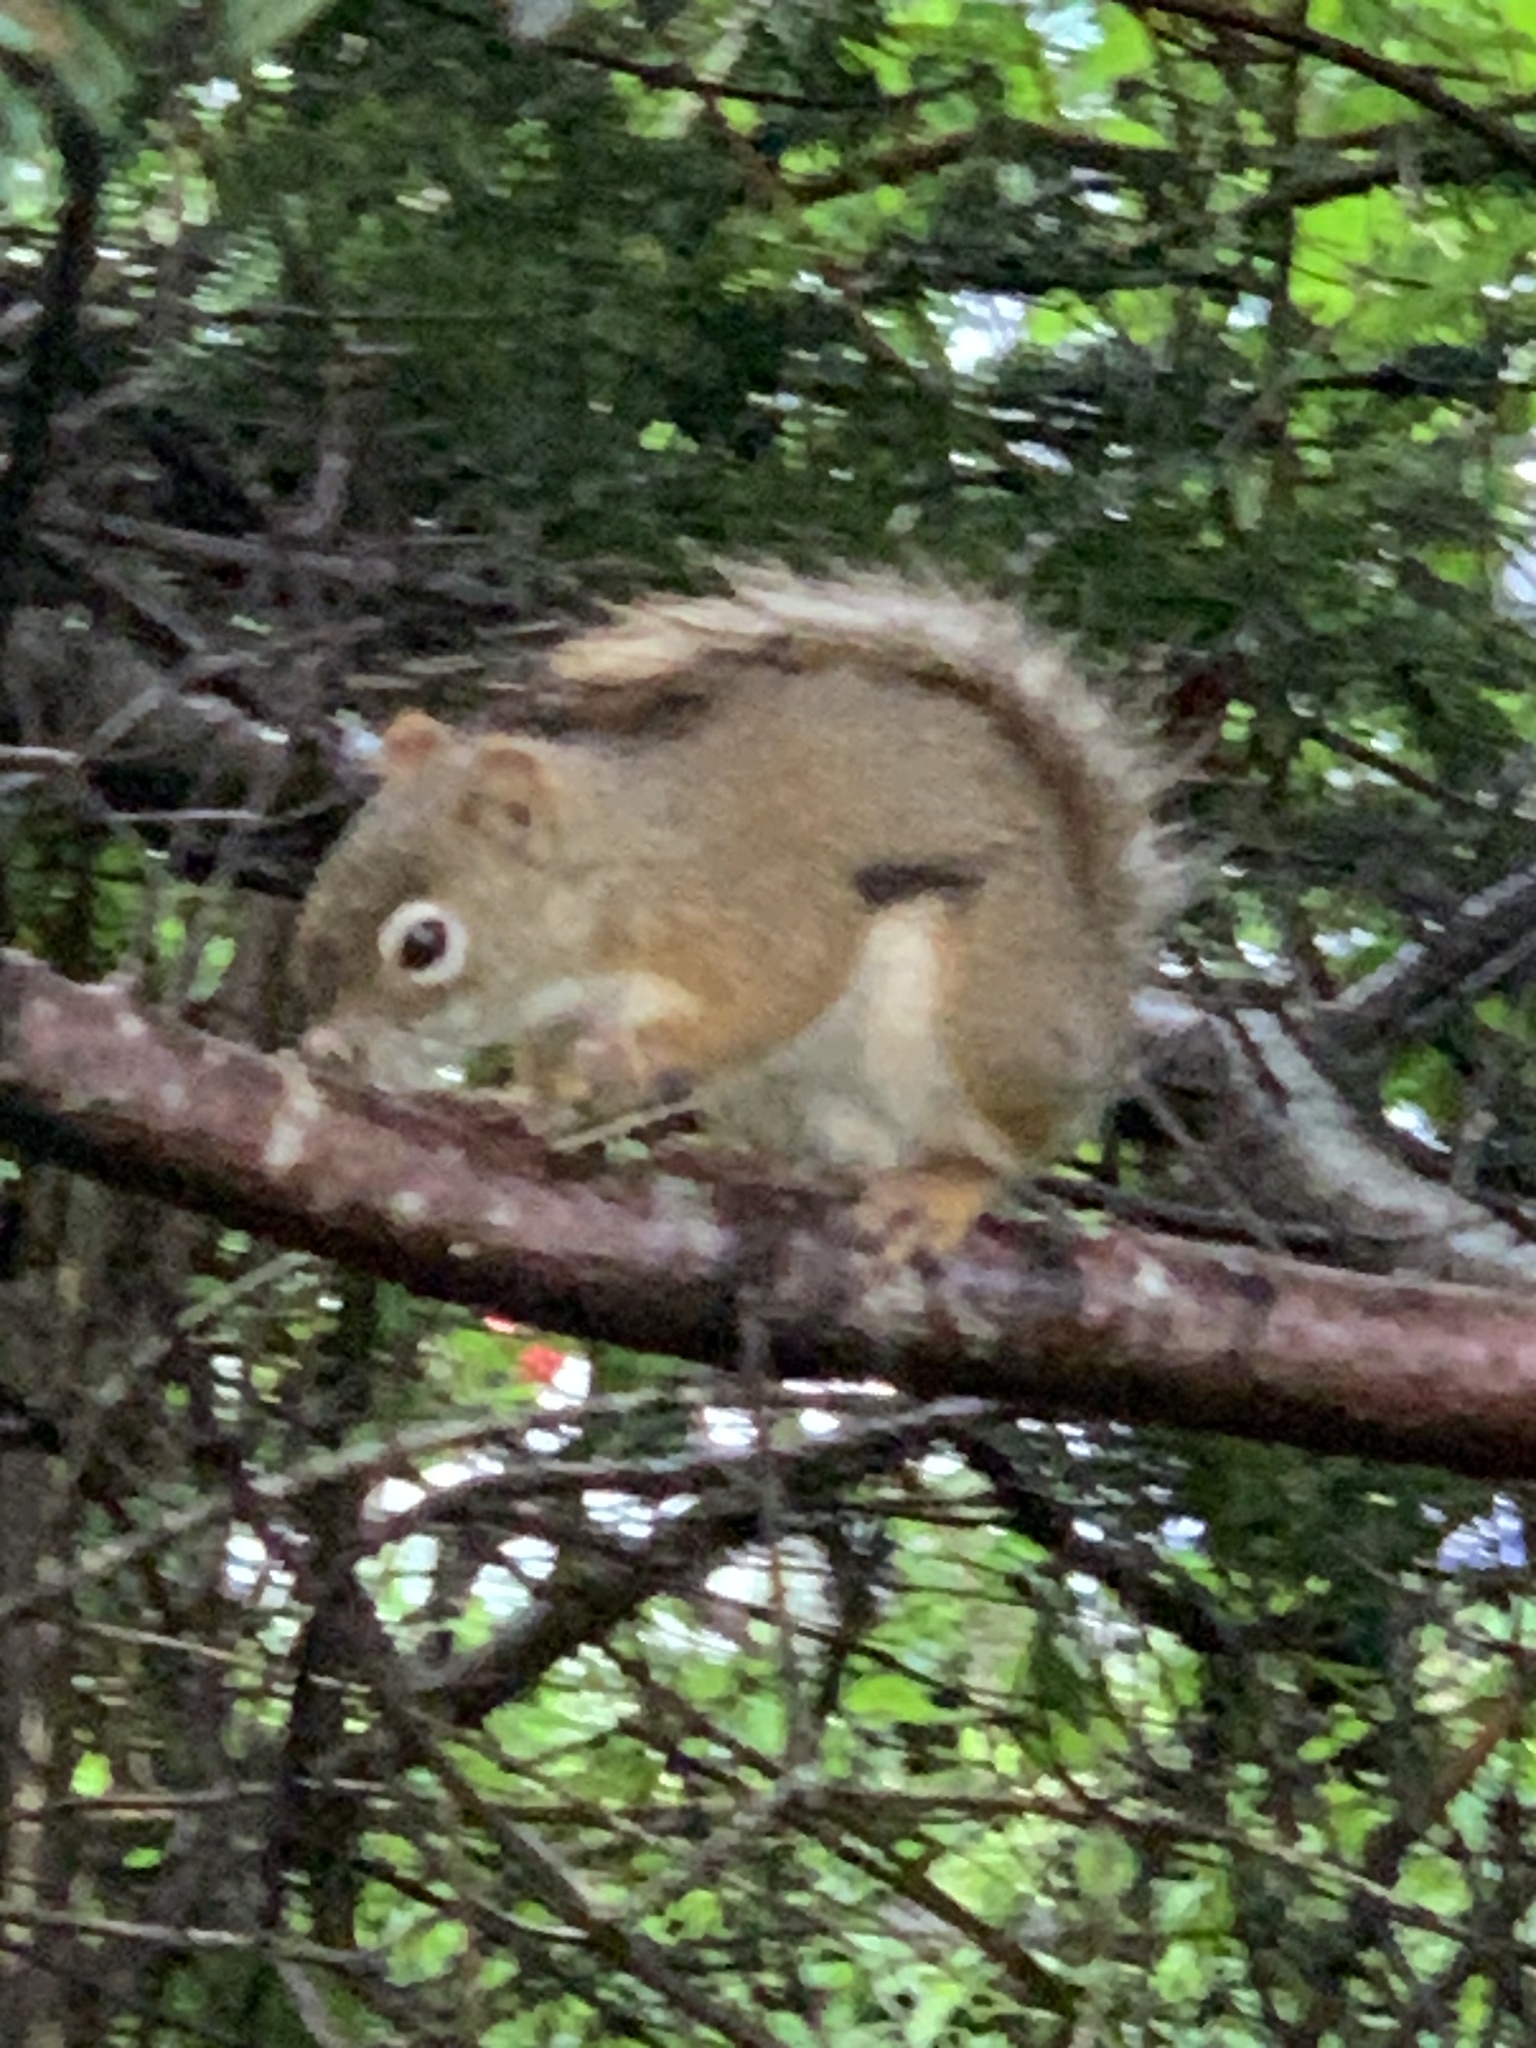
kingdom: Animalia
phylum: Chordata
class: Mammalia
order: Rodentia
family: Sciuridae
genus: Tamiasciurus
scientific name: Tamiasciurus hudsonicus
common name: Red squirrel
